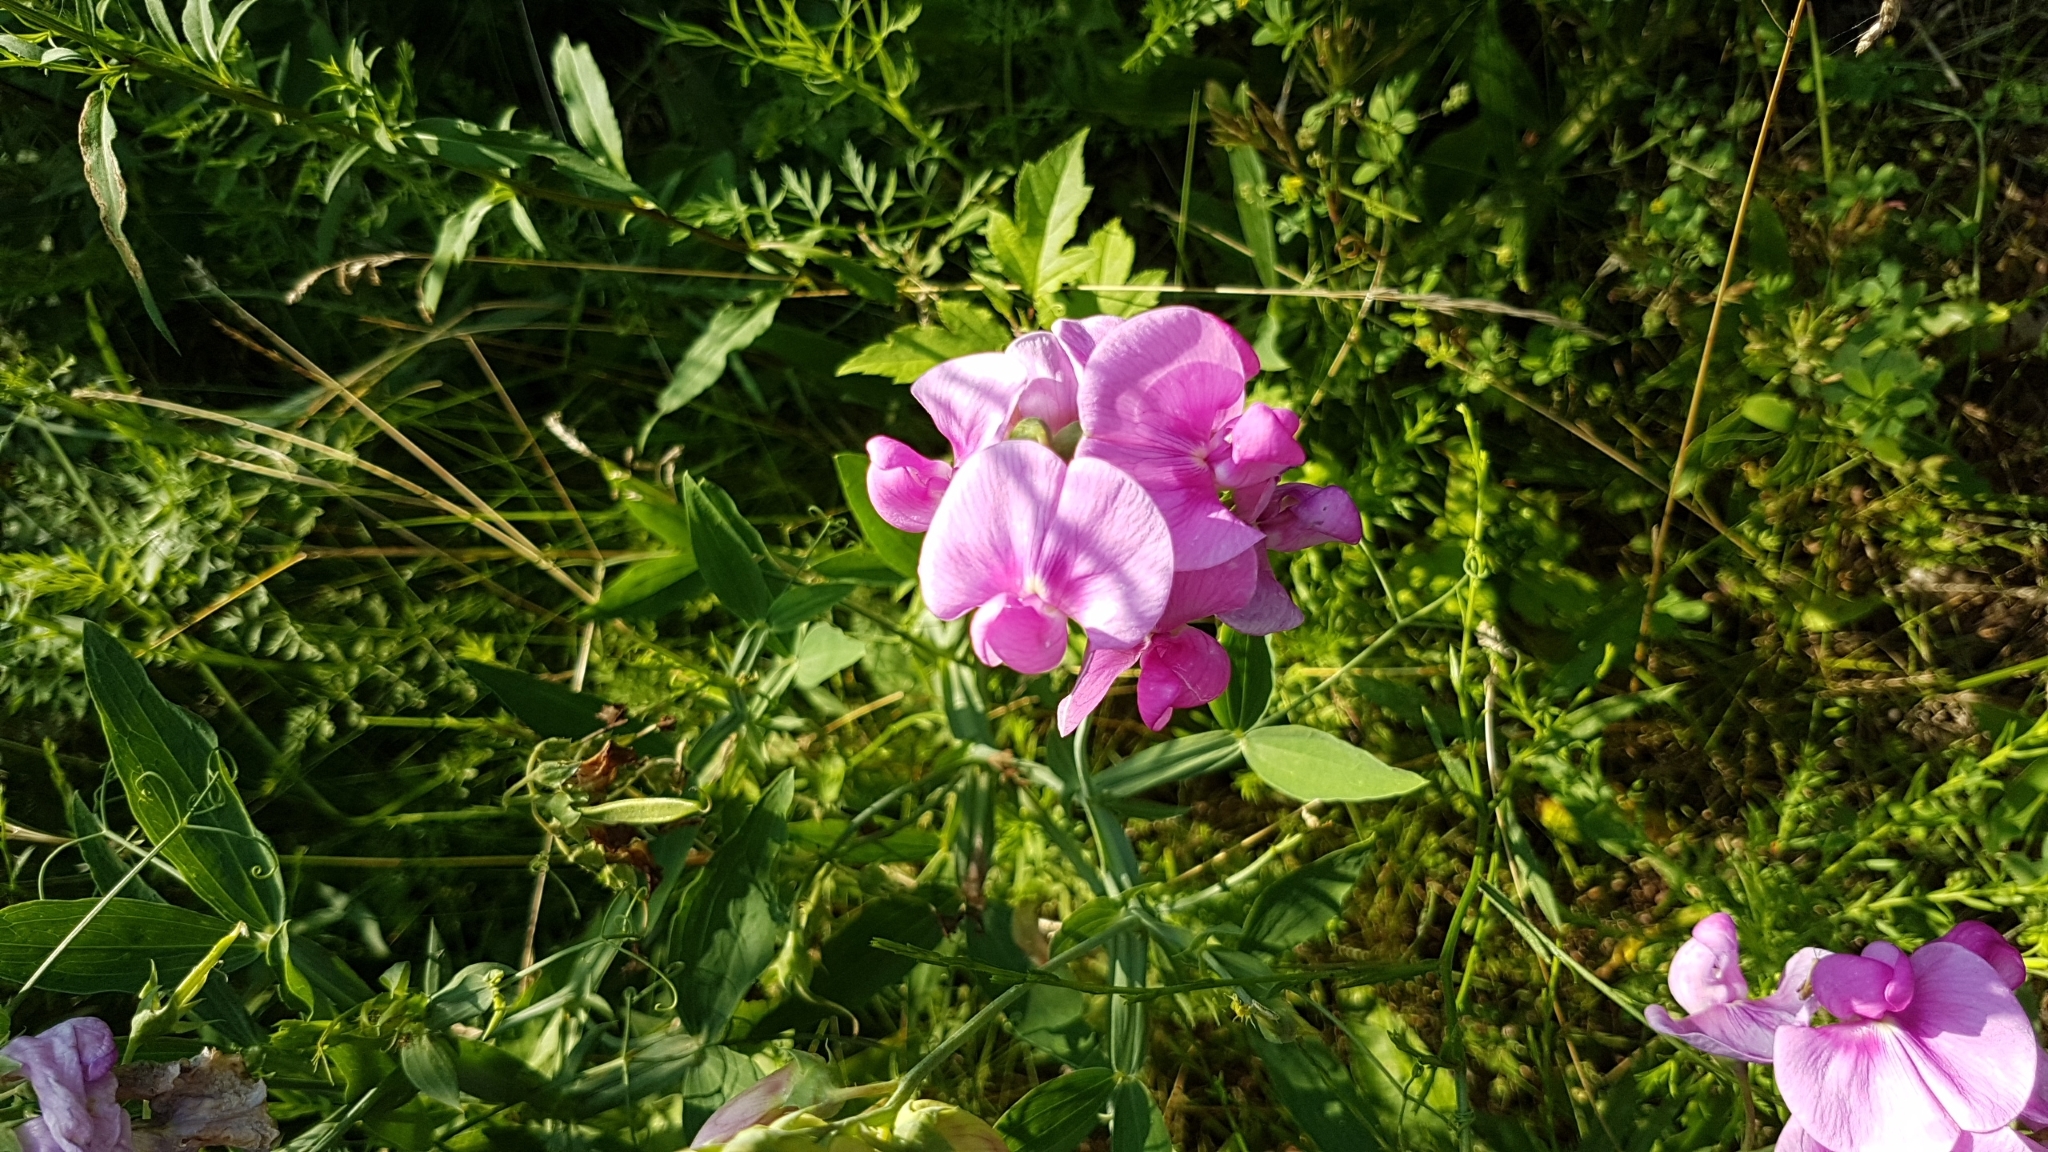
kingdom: Plantae
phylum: Tracheophyta
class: Magnoliopsida
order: Fabales
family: Fabaceae
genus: Lathyrus
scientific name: Lathyrus latifolius
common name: Perennial pea
